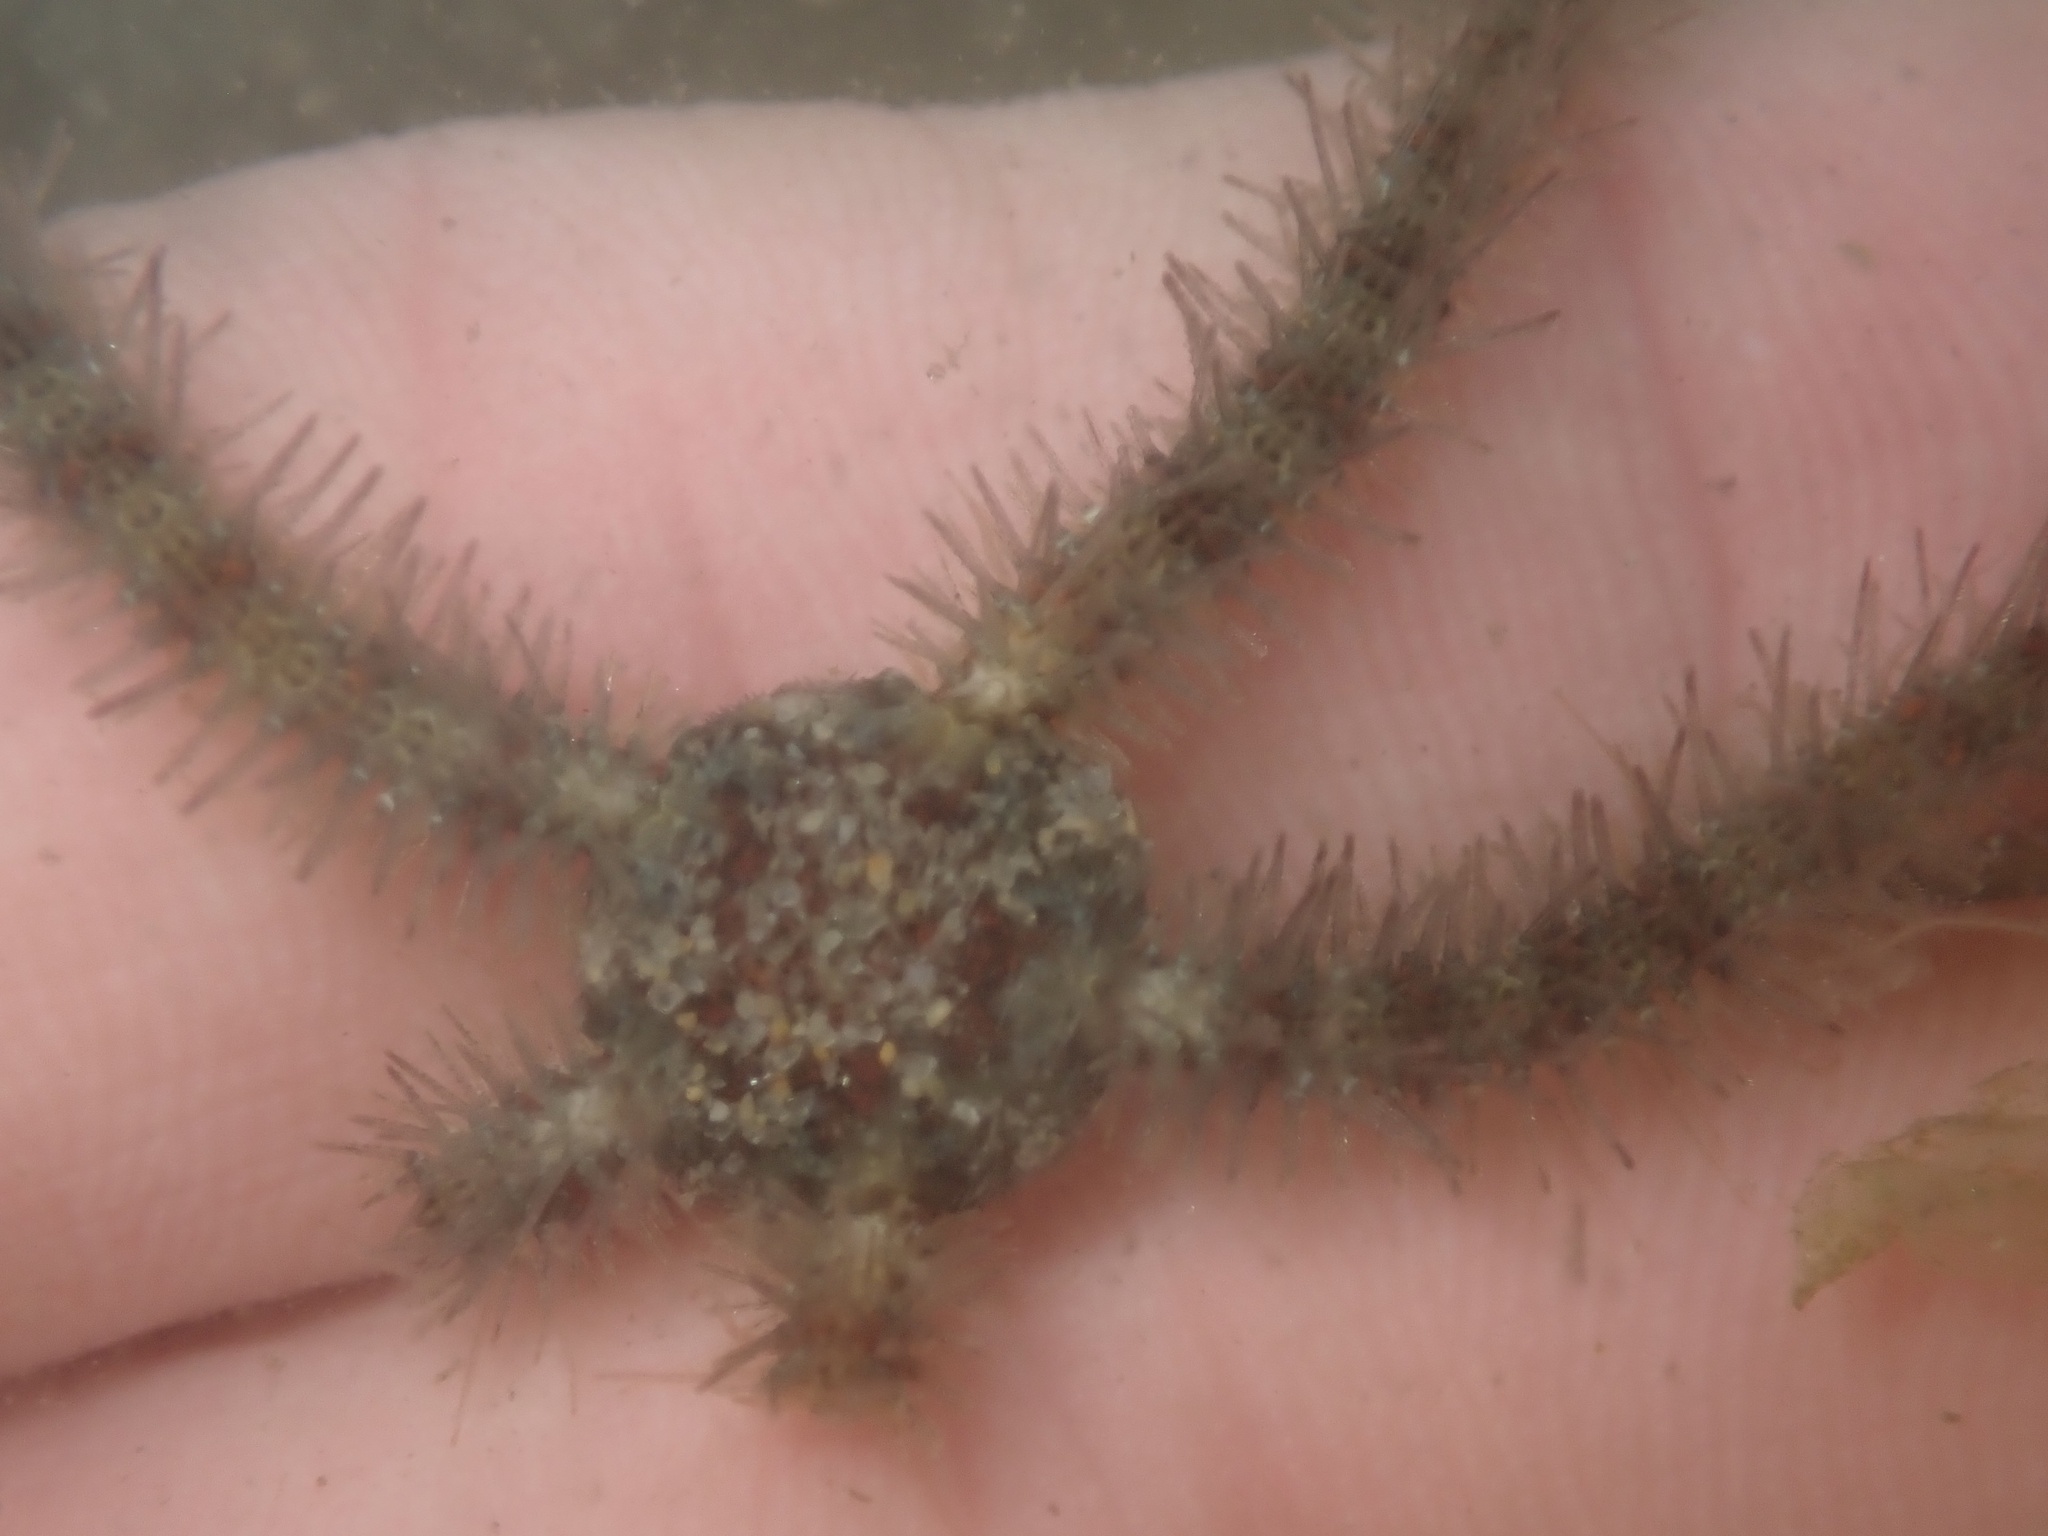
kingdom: Animalia
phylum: Echinodermata
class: Ophiuroidea
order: Amphilepidida
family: Ophiotrichidae
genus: Ophiothrix
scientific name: Ophiothrix spiculata
